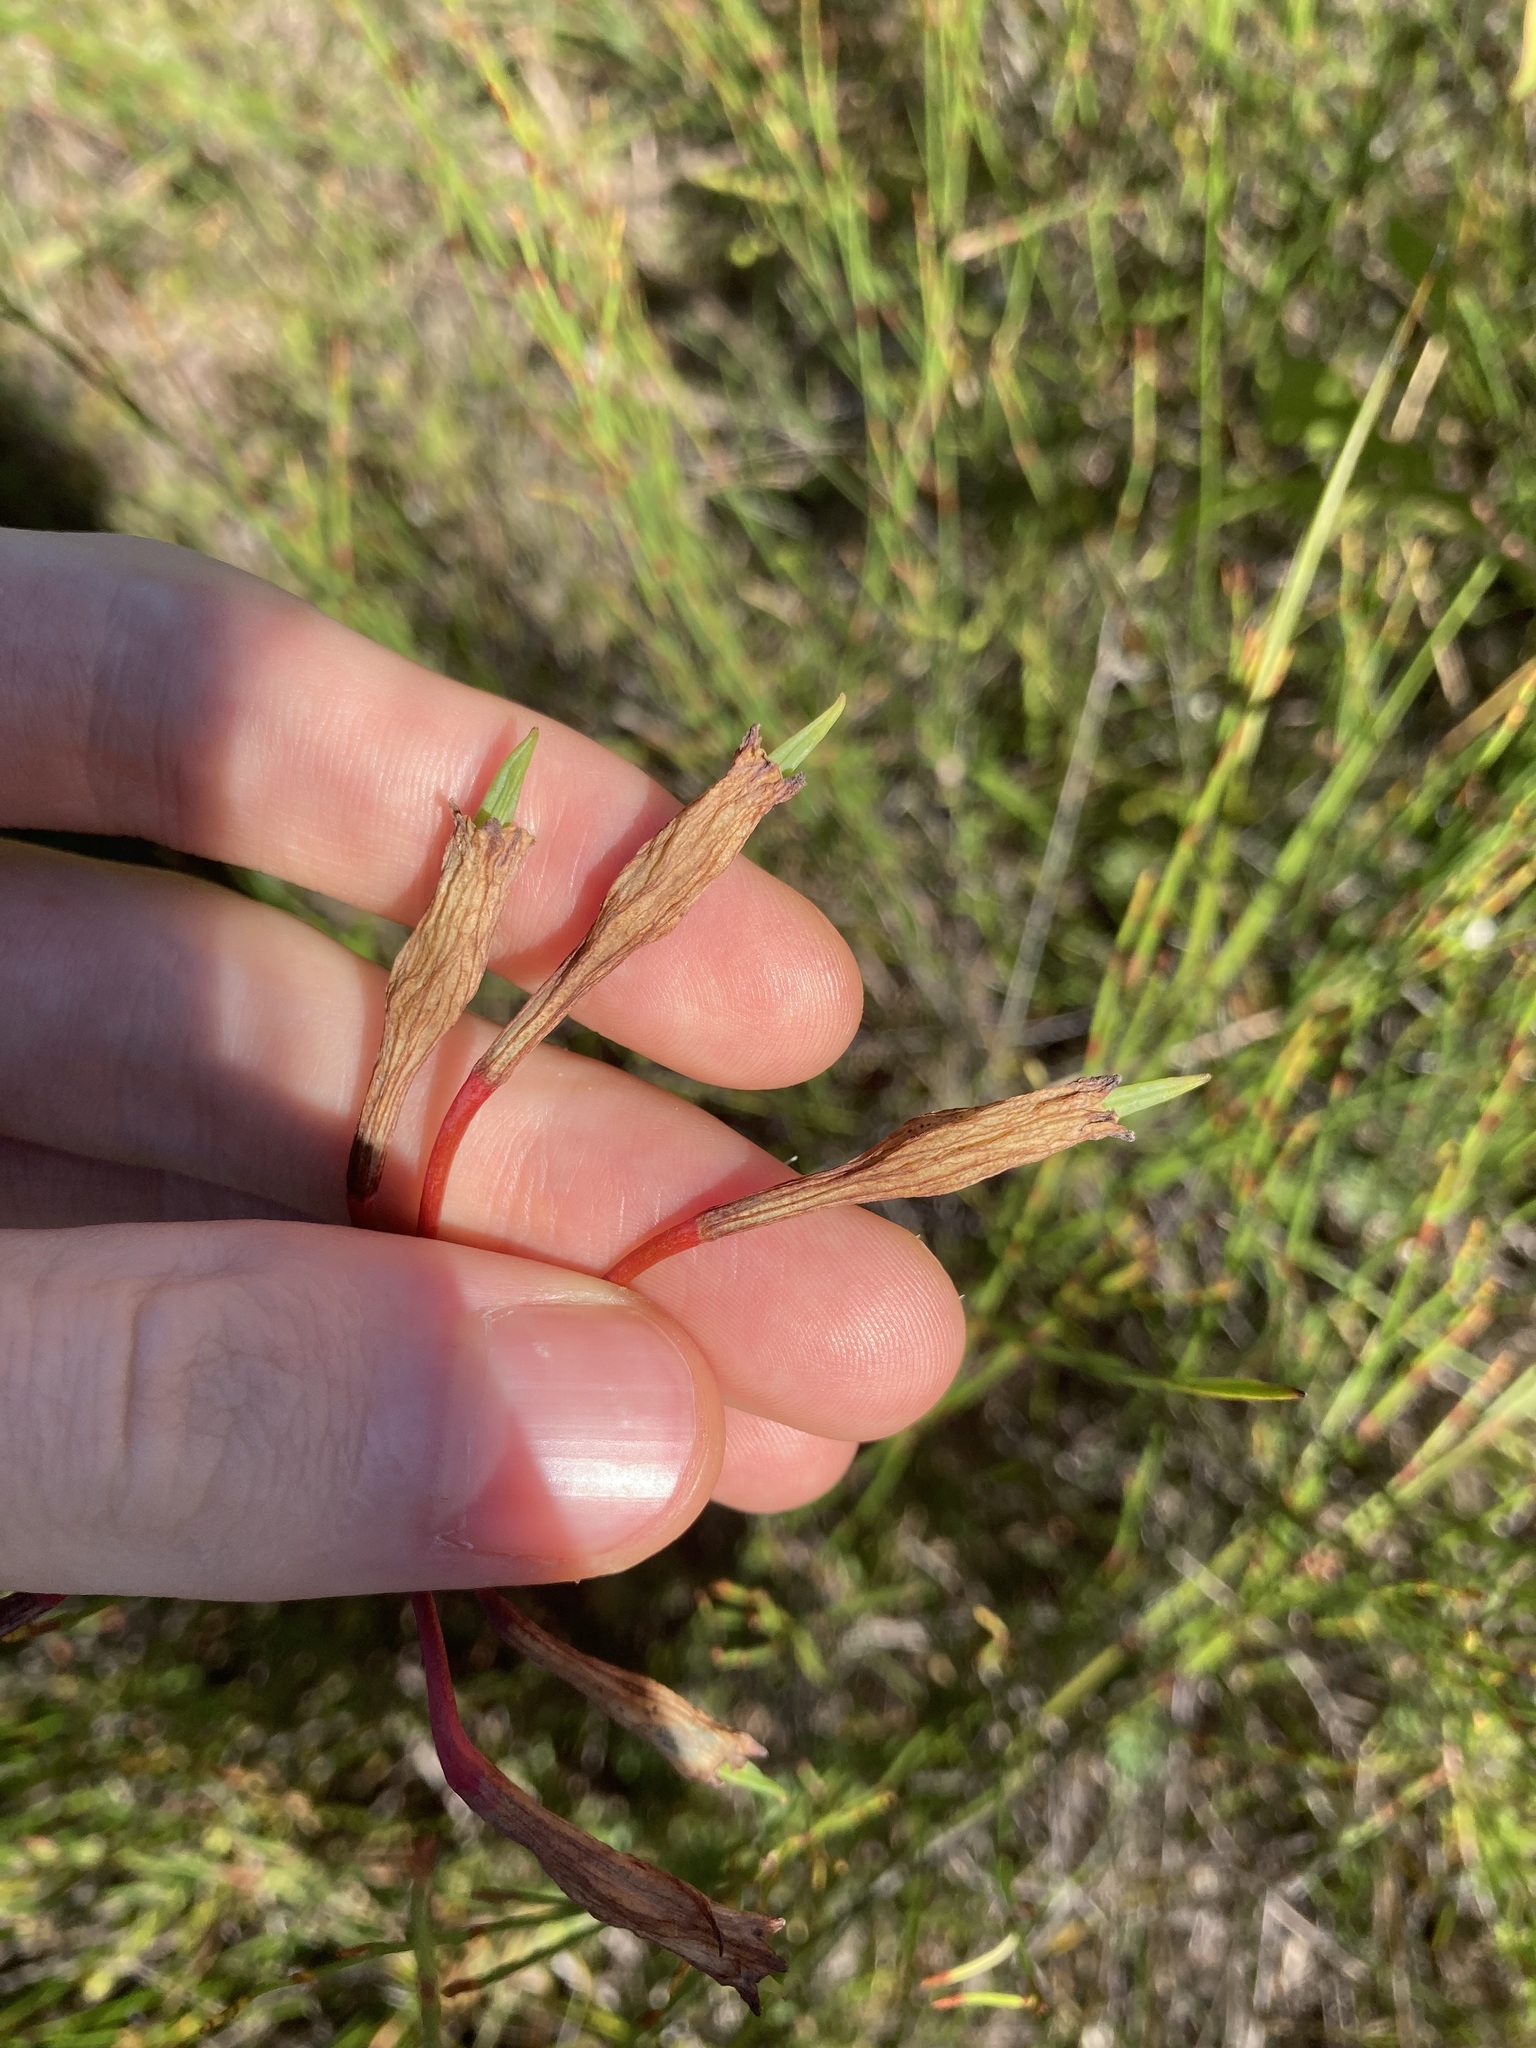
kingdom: Plantae
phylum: Tracheophyta
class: Liliopsida
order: Asparagales
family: Blandfordiaceae
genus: Blandfordia
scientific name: Blandfordia nobilis
